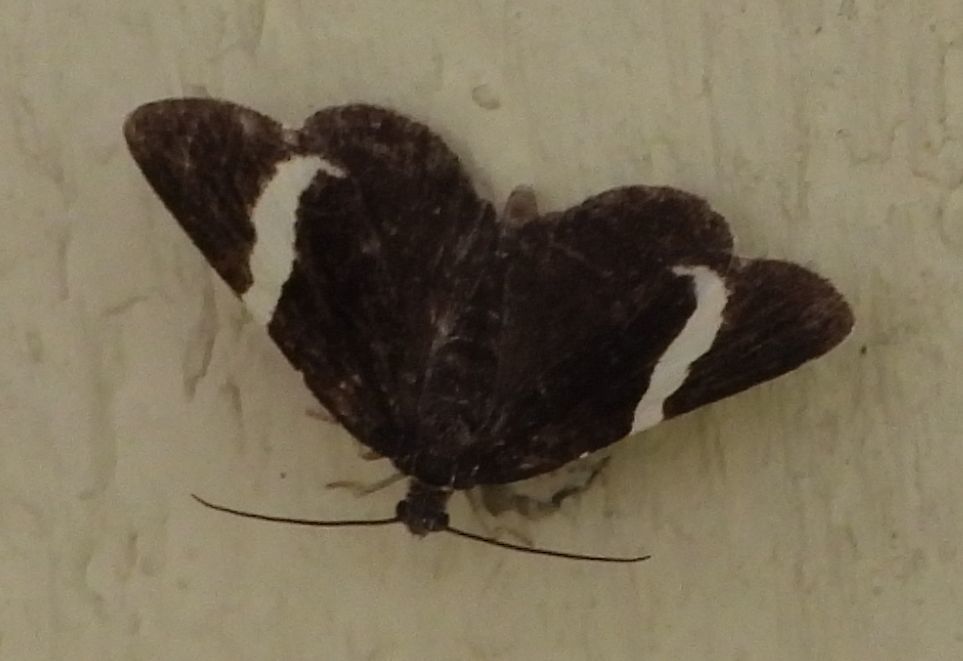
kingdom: Animalia
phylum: Arthropoda
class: Insecta
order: Lepidoptera
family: Geometridae
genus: Trichodezia
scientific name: Trichodezia albovittata
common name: White striped black
